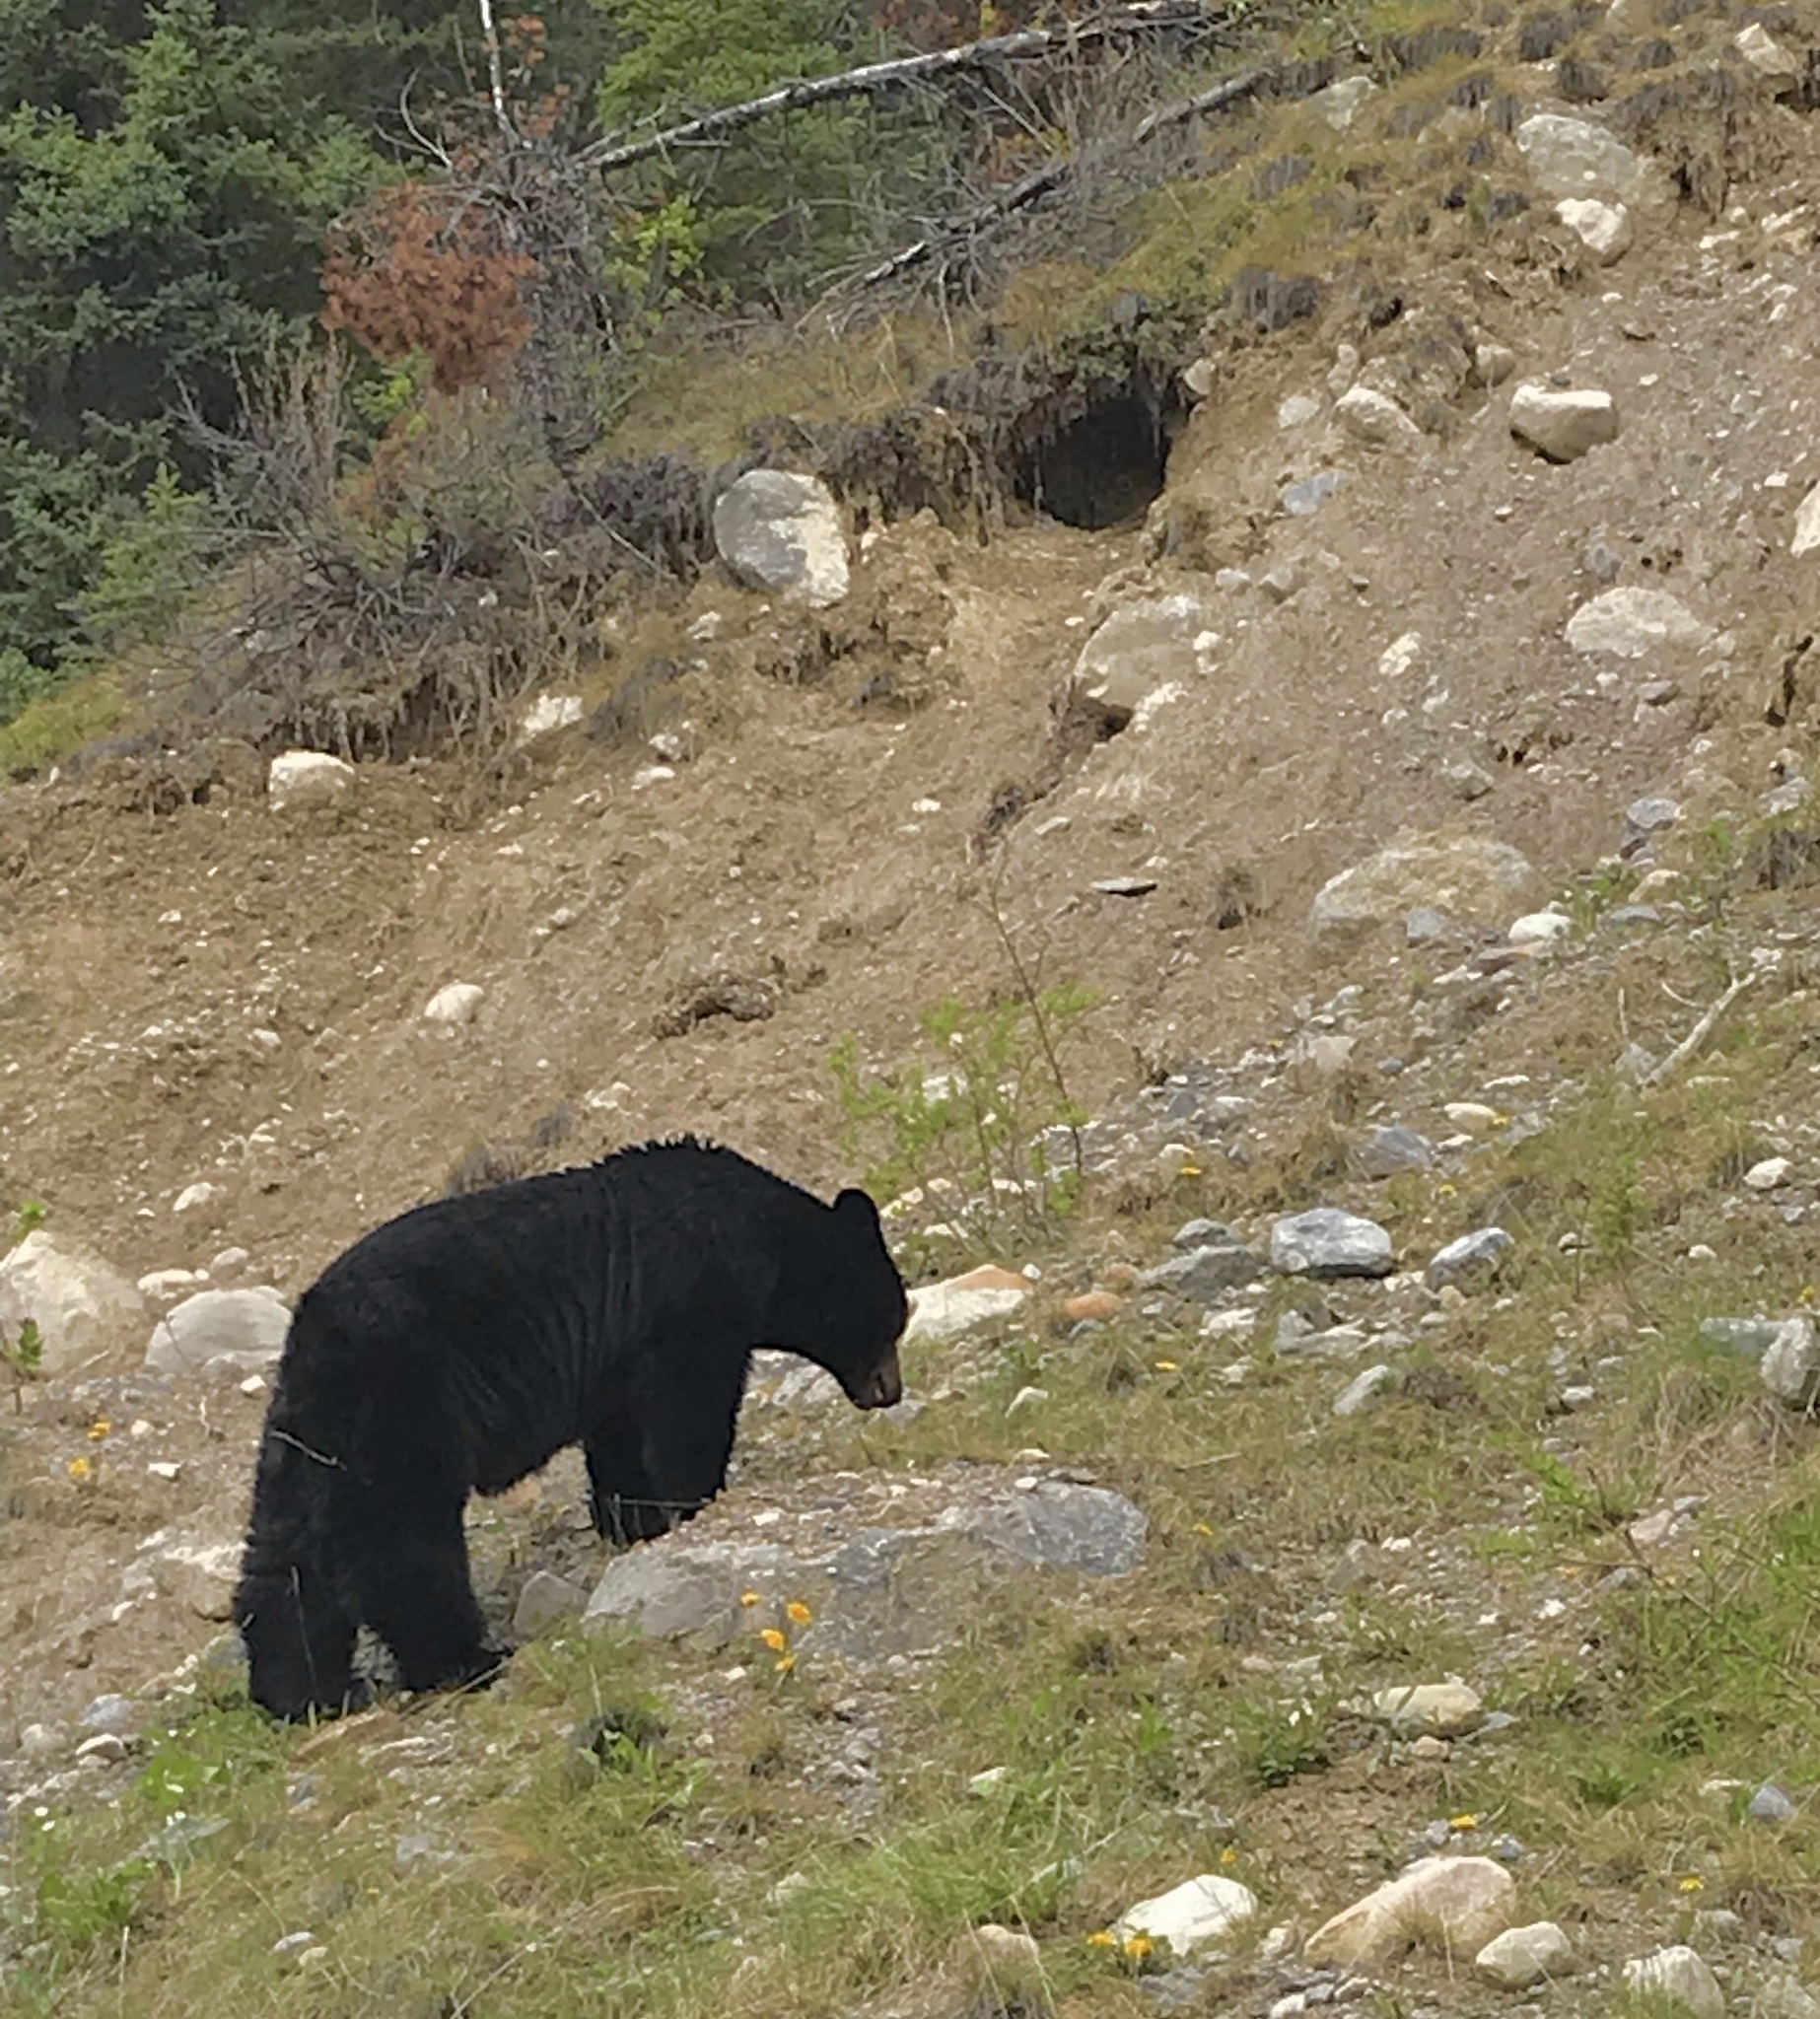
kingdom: Animalia
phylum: Chordata
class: Mammalia
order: Carnivora
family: Ursidae
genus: Ursus
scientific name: Ursus americanus
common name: American black bear
